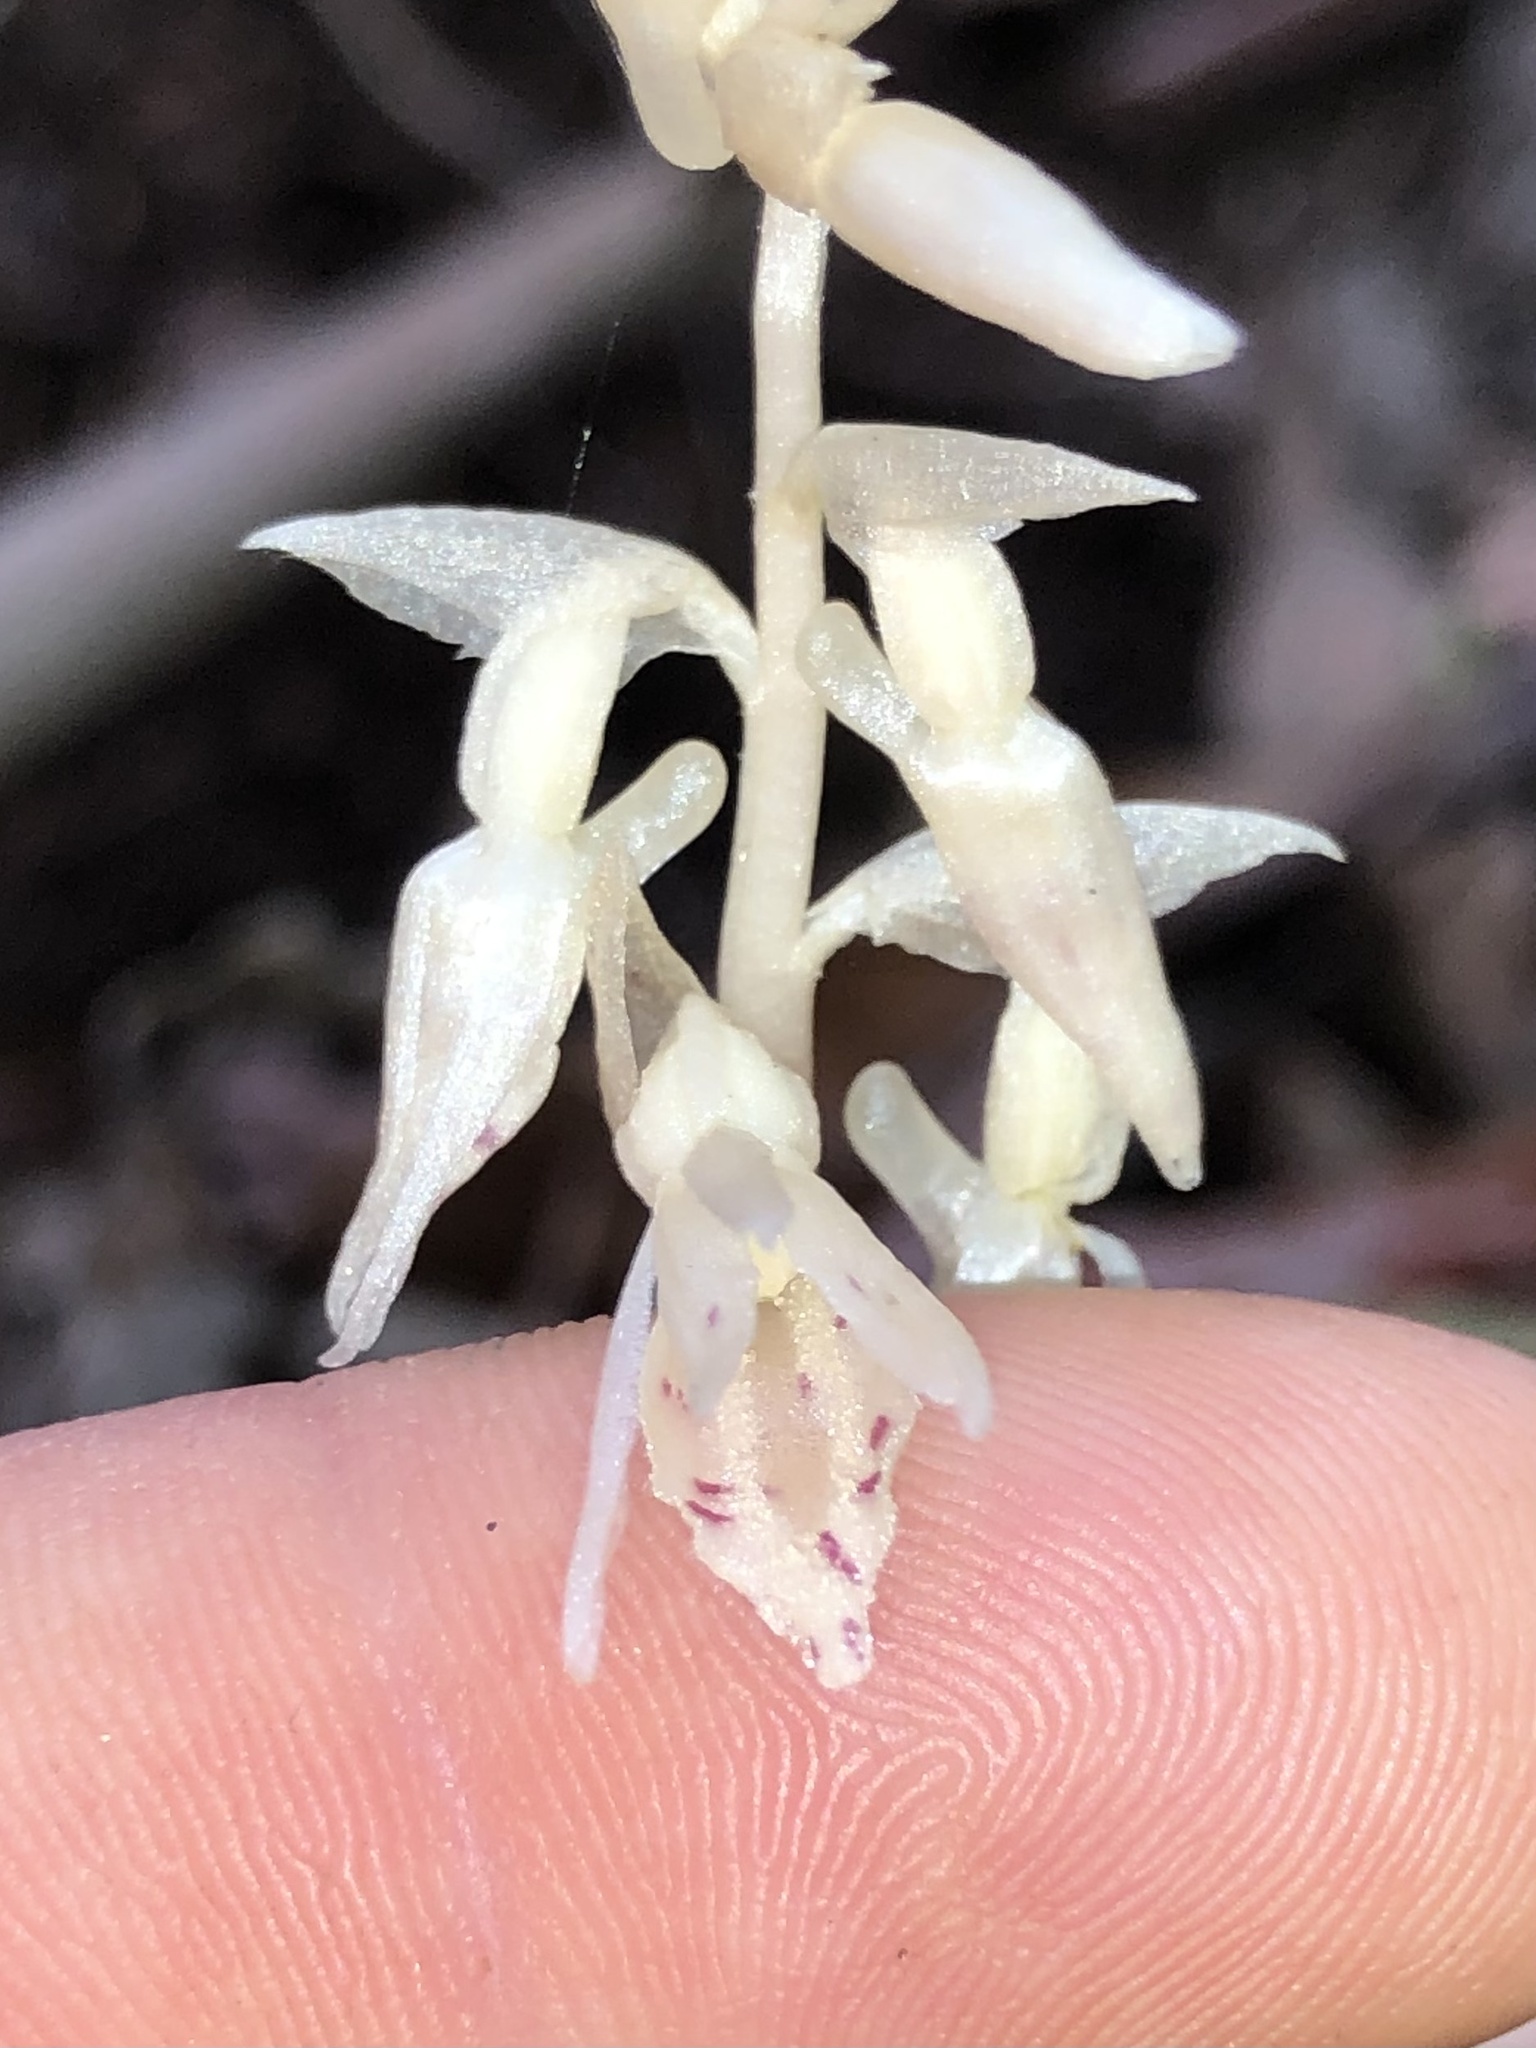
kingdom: Plantae
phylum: Tracheophyta
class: Liliopsida
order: Asparagales
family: Orchidaceae
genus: Epipogium
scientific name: Epipogium roseum
